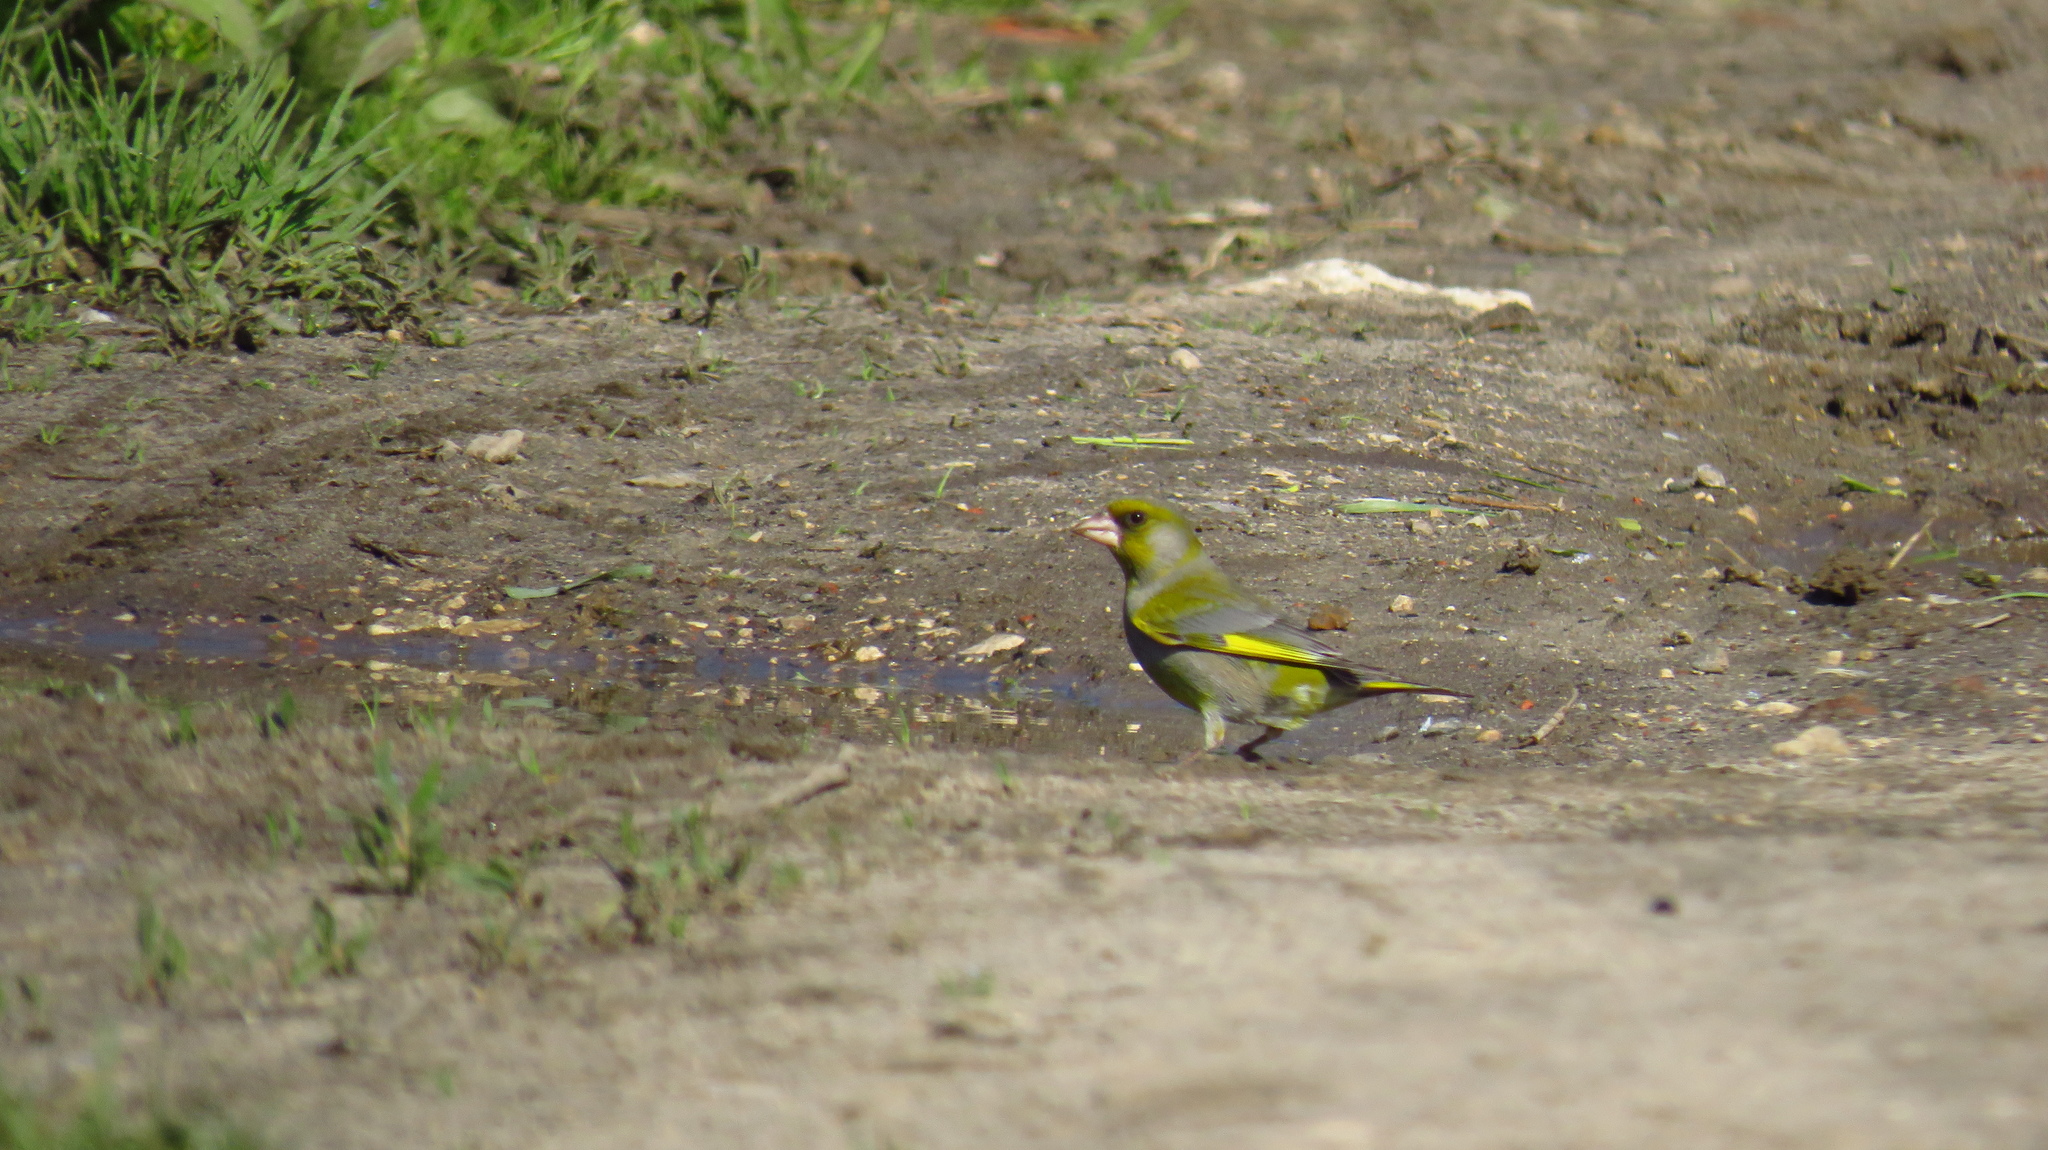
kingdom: Plantae
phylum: Tracheophyta
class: Liliopsida
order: Poales
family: Poaceae
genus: Chloris
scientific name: Chloris chloris
